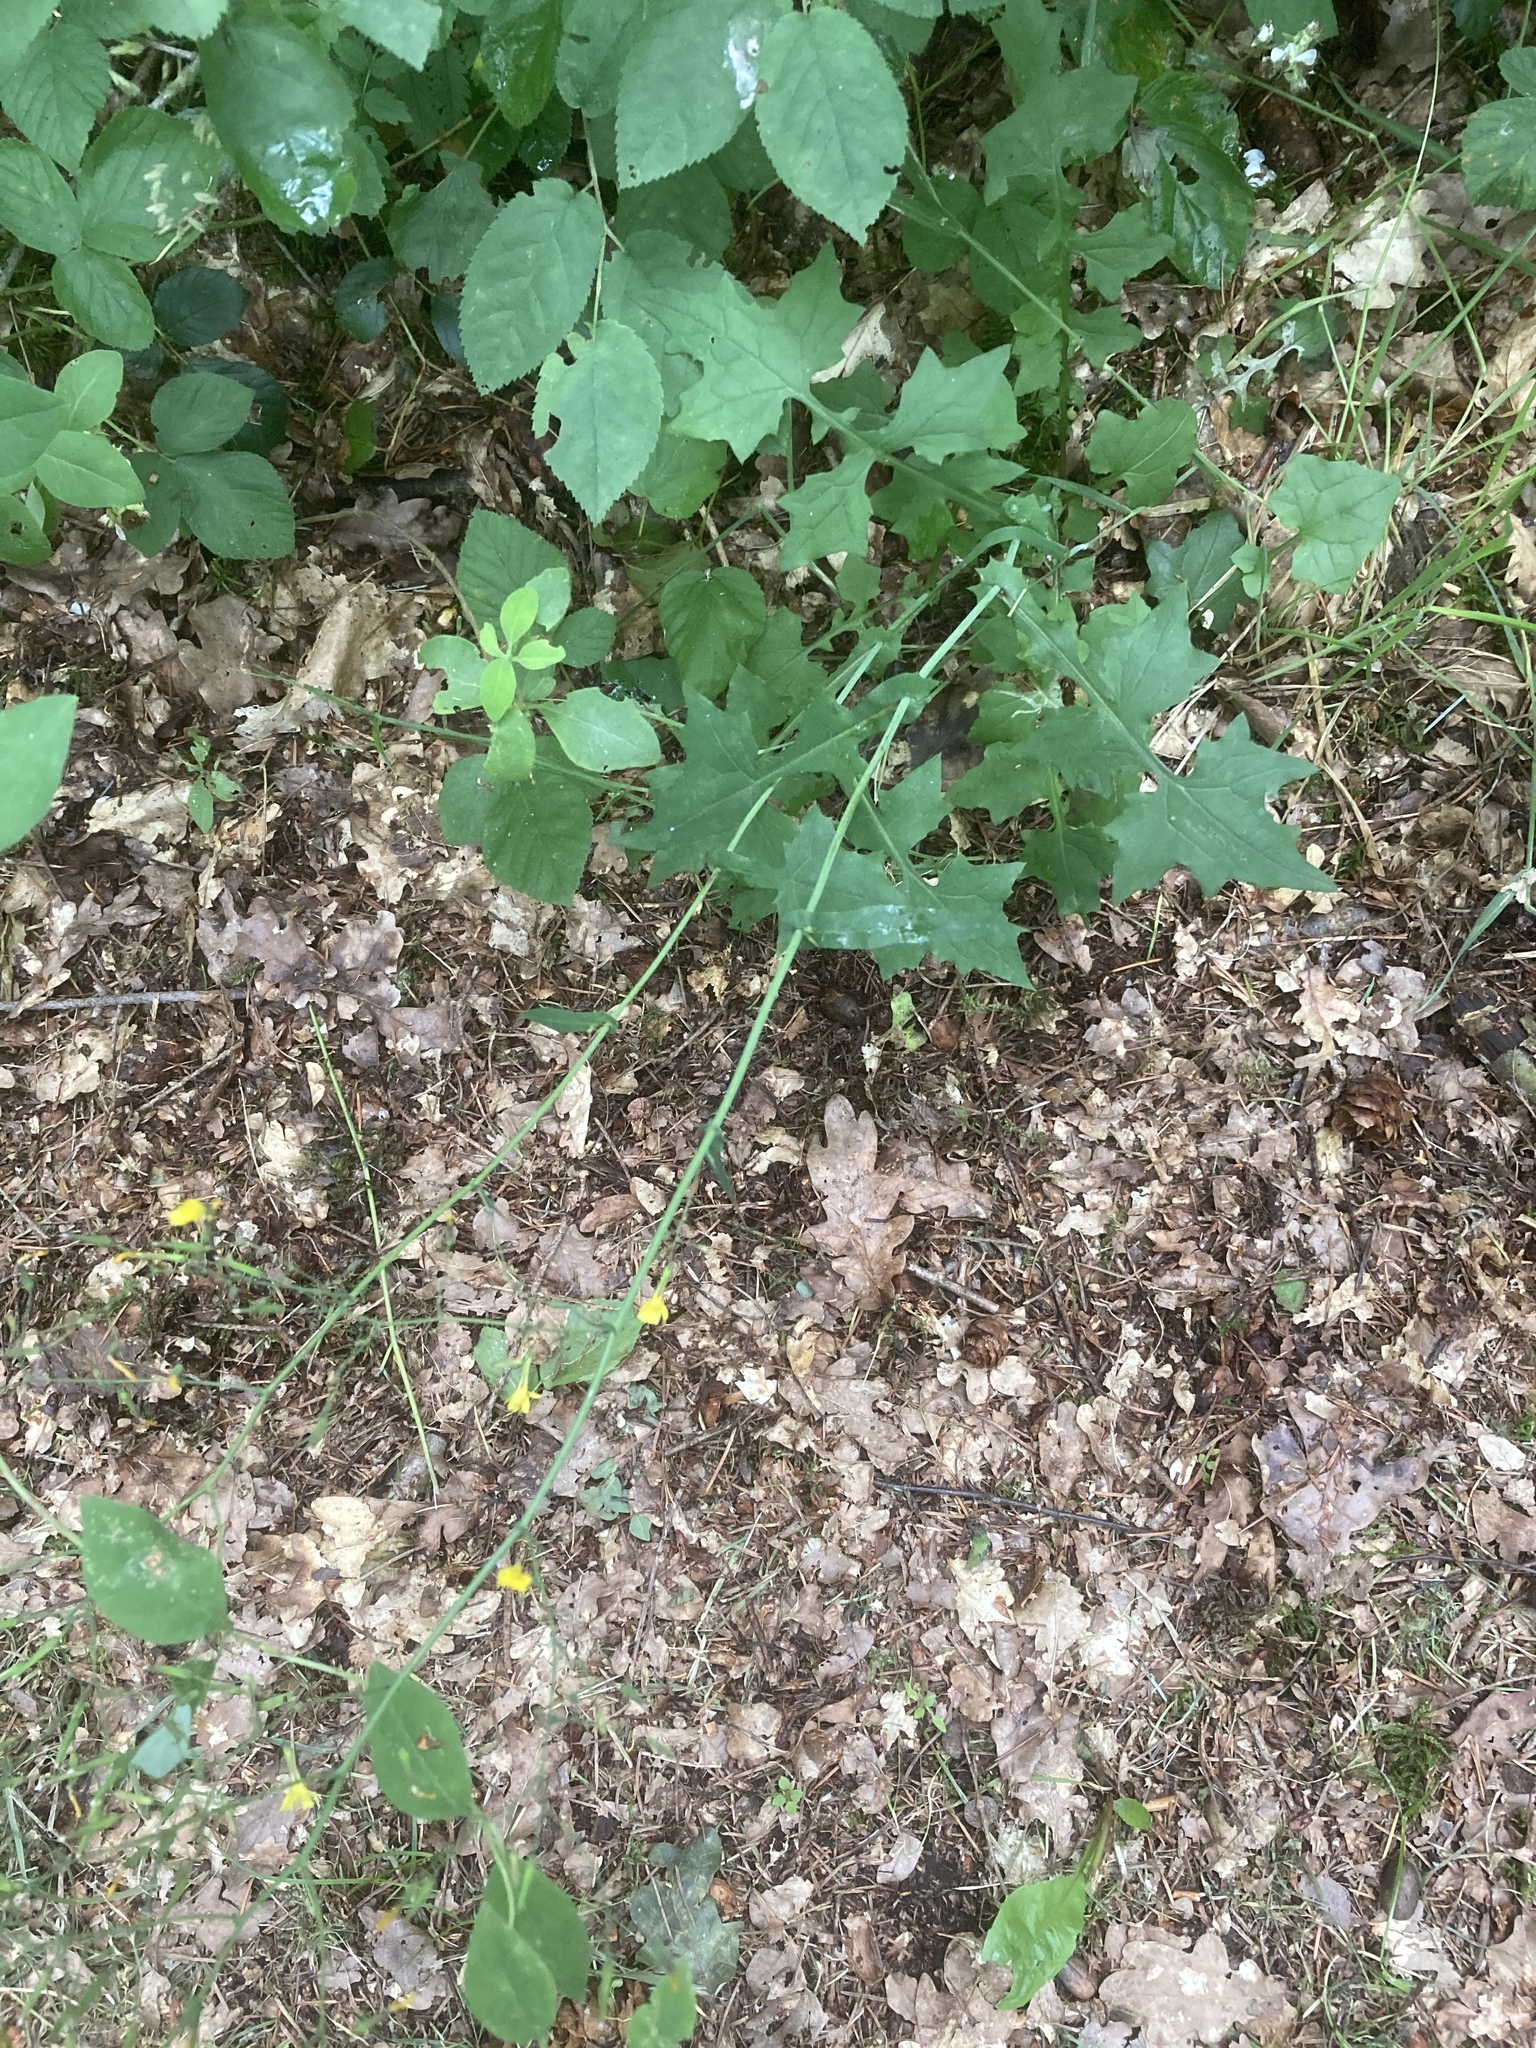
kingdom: Plantae
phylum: Tracheophyta
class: Magnoliopsida
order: Asterales
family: Asteraceae
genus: Mycelis
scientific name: Mycelis muralis
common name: Wall lettuce
